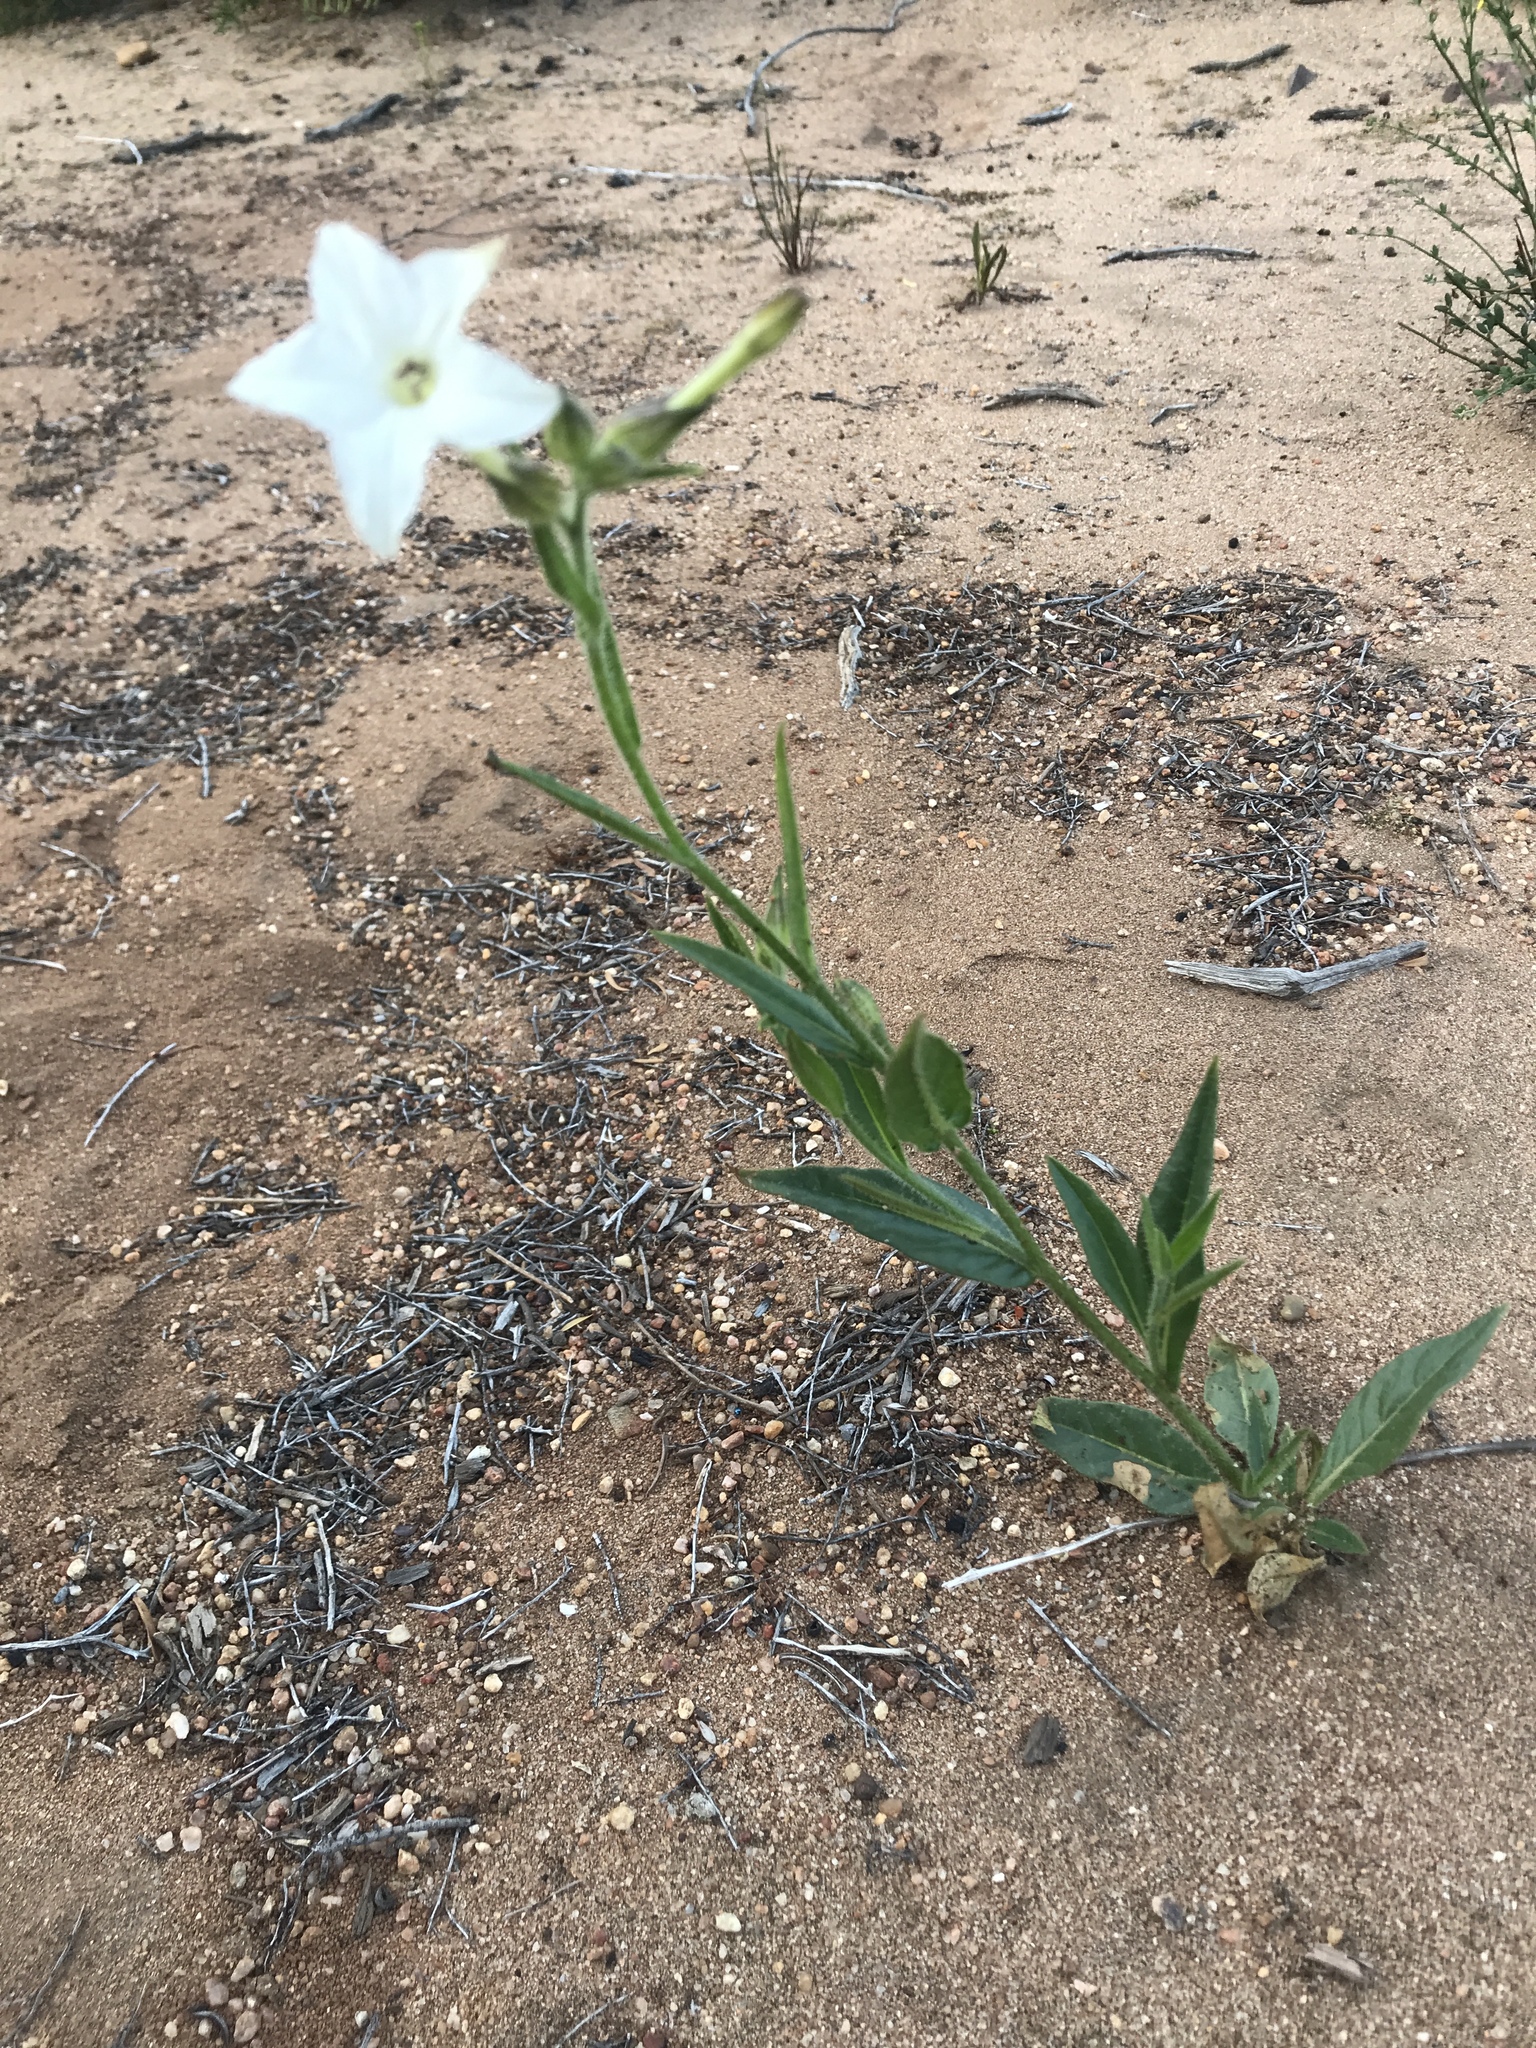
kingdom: Plantae
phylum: Tracheophyta
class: Magnoliopsida
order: Solanales
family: Solanaceae
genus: Nicotiana
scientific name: Nicotiana quadrivalvis
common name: Indian tobacco
